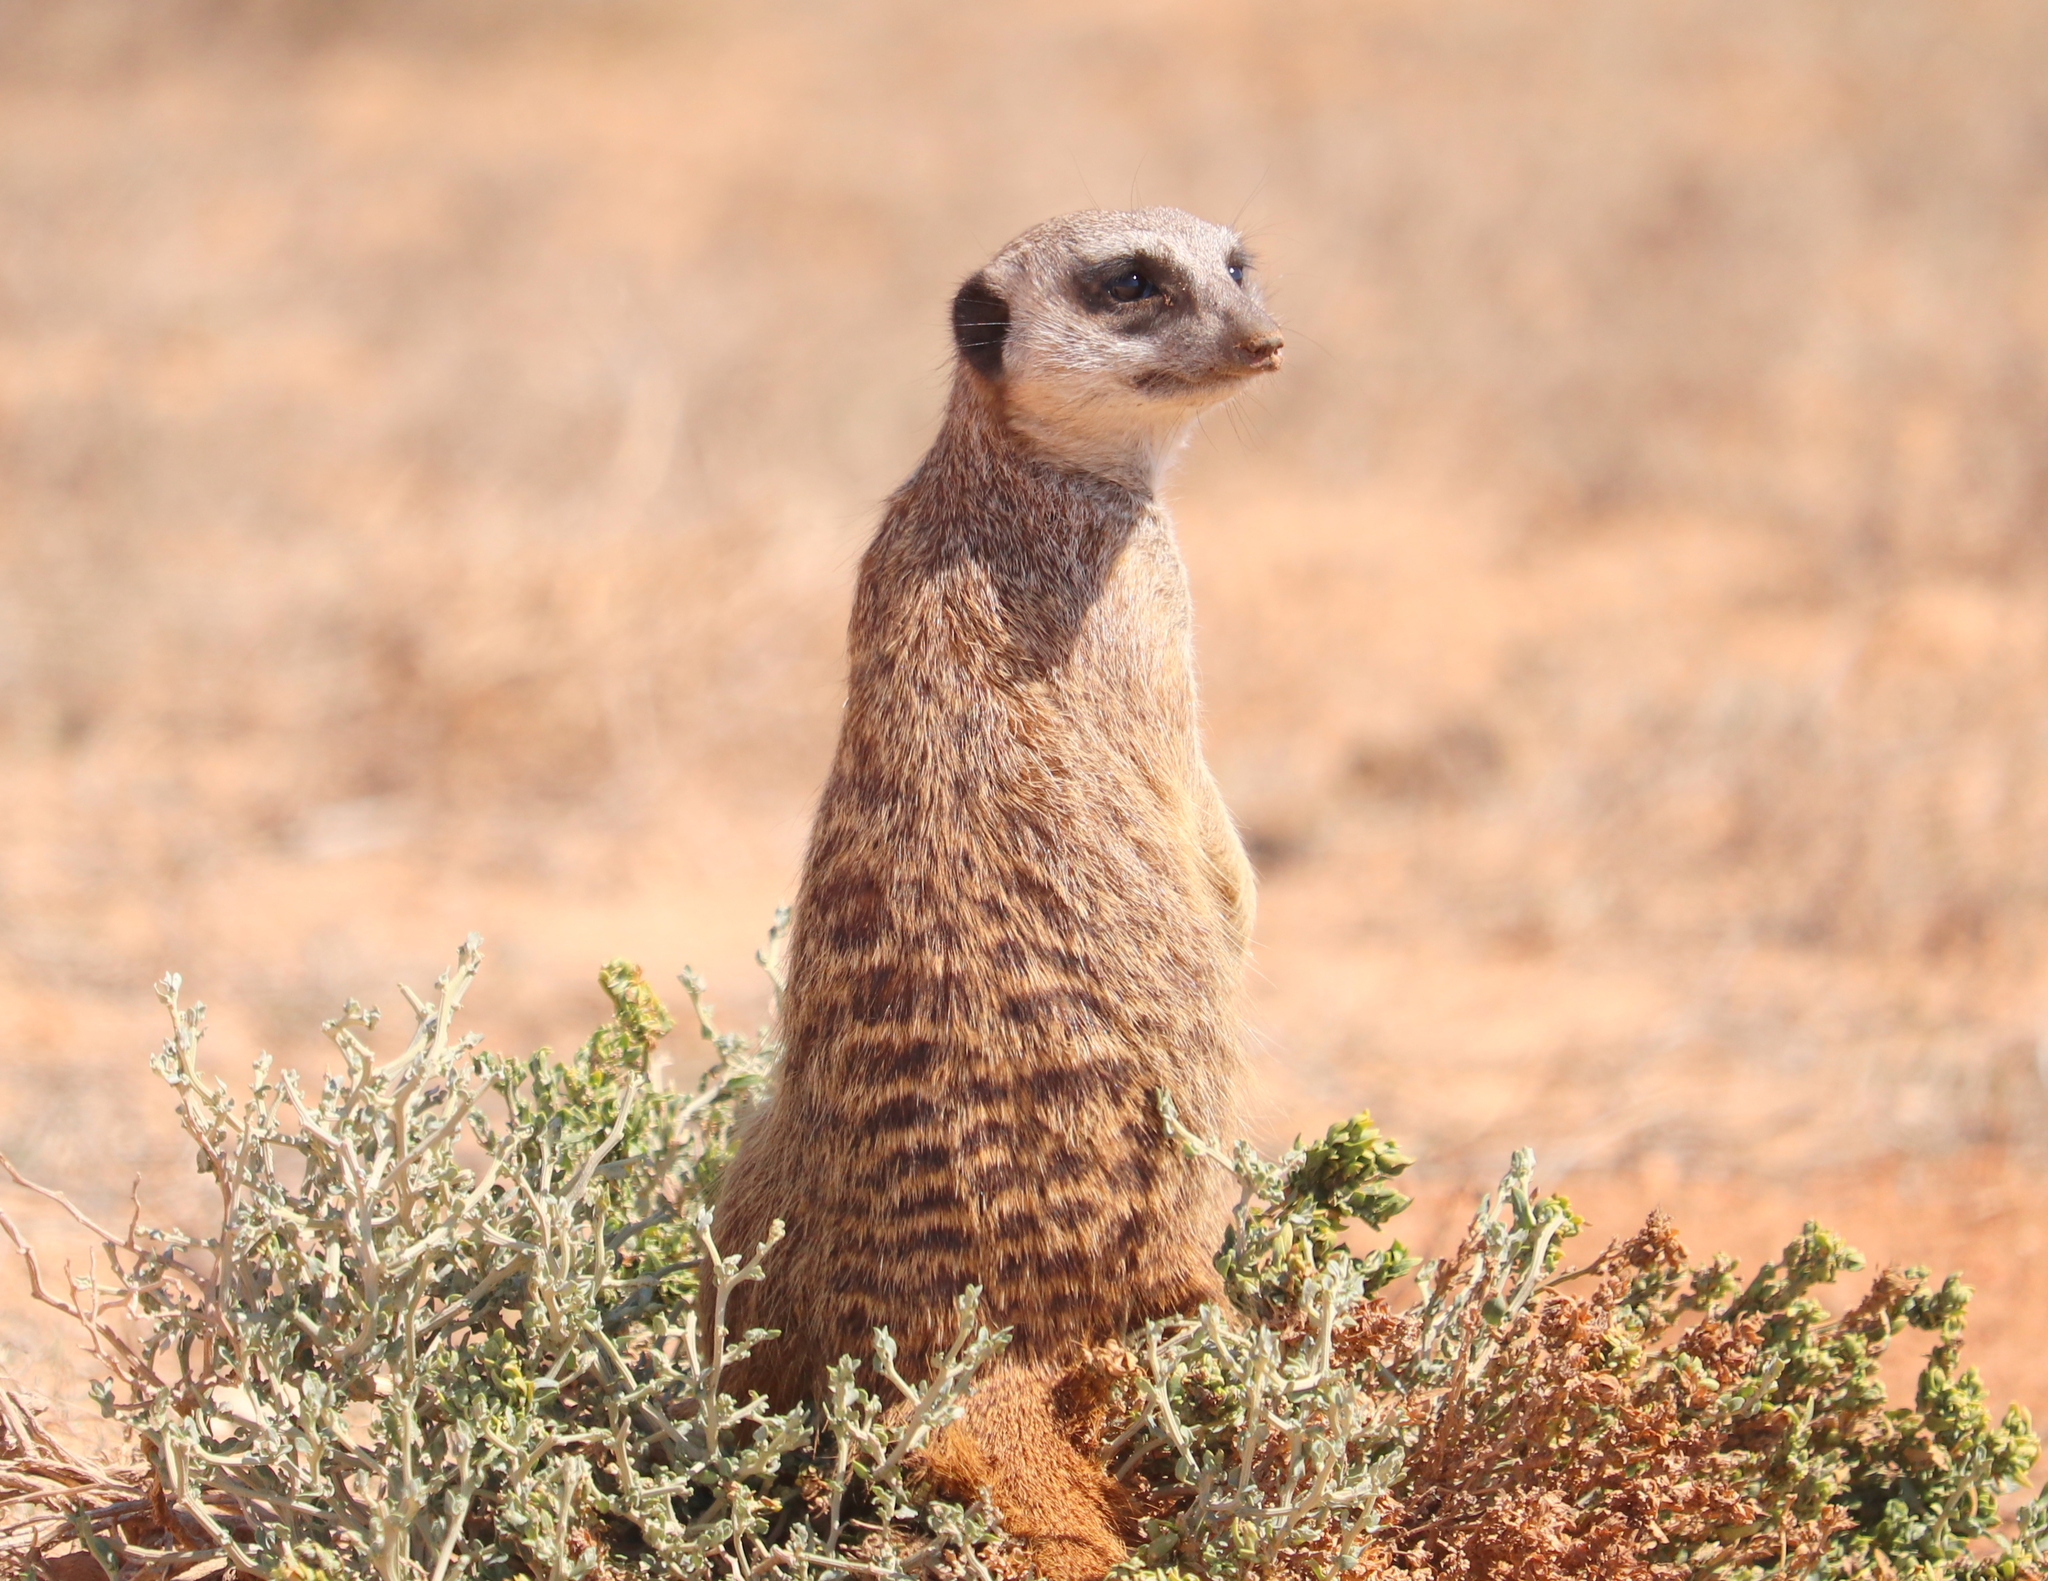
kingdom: Animalia
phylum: Chordata
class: Mammalia
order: Carnivora
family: Herpestidae
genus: Suricata
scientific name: Suricata suricatta
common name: Meerkat
